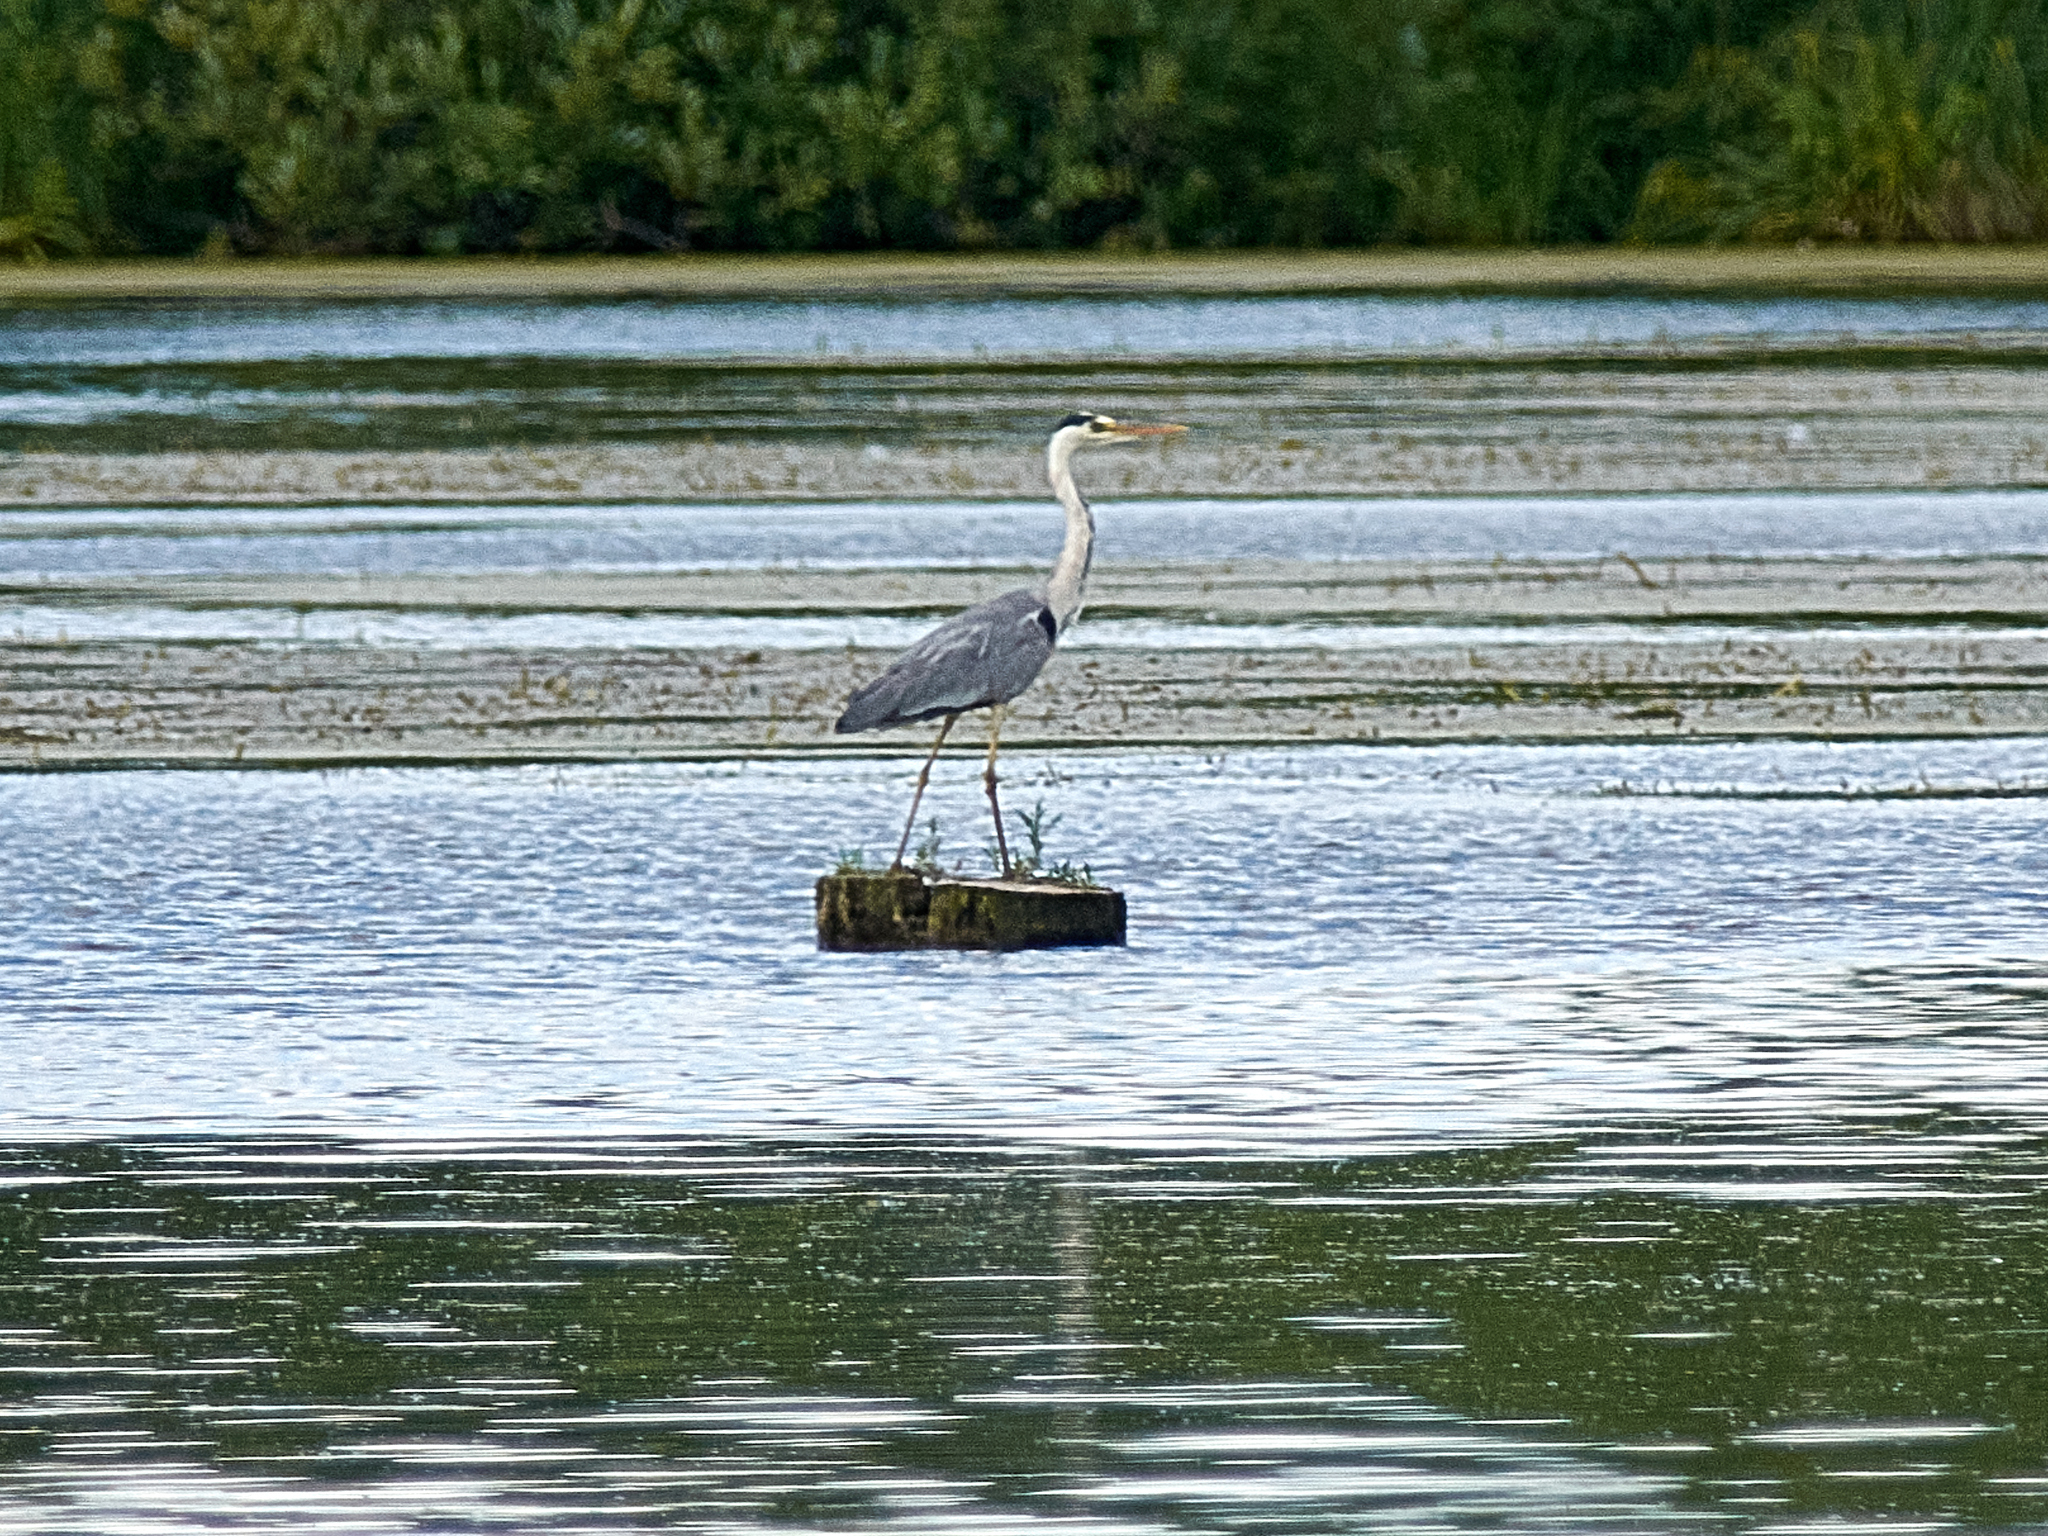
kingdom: Animalia
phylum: Chordata
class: Aves
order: Pelecaniformes
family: Ardeidae
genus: Ardea
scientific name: Ardea cinerea
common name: Grey heron
